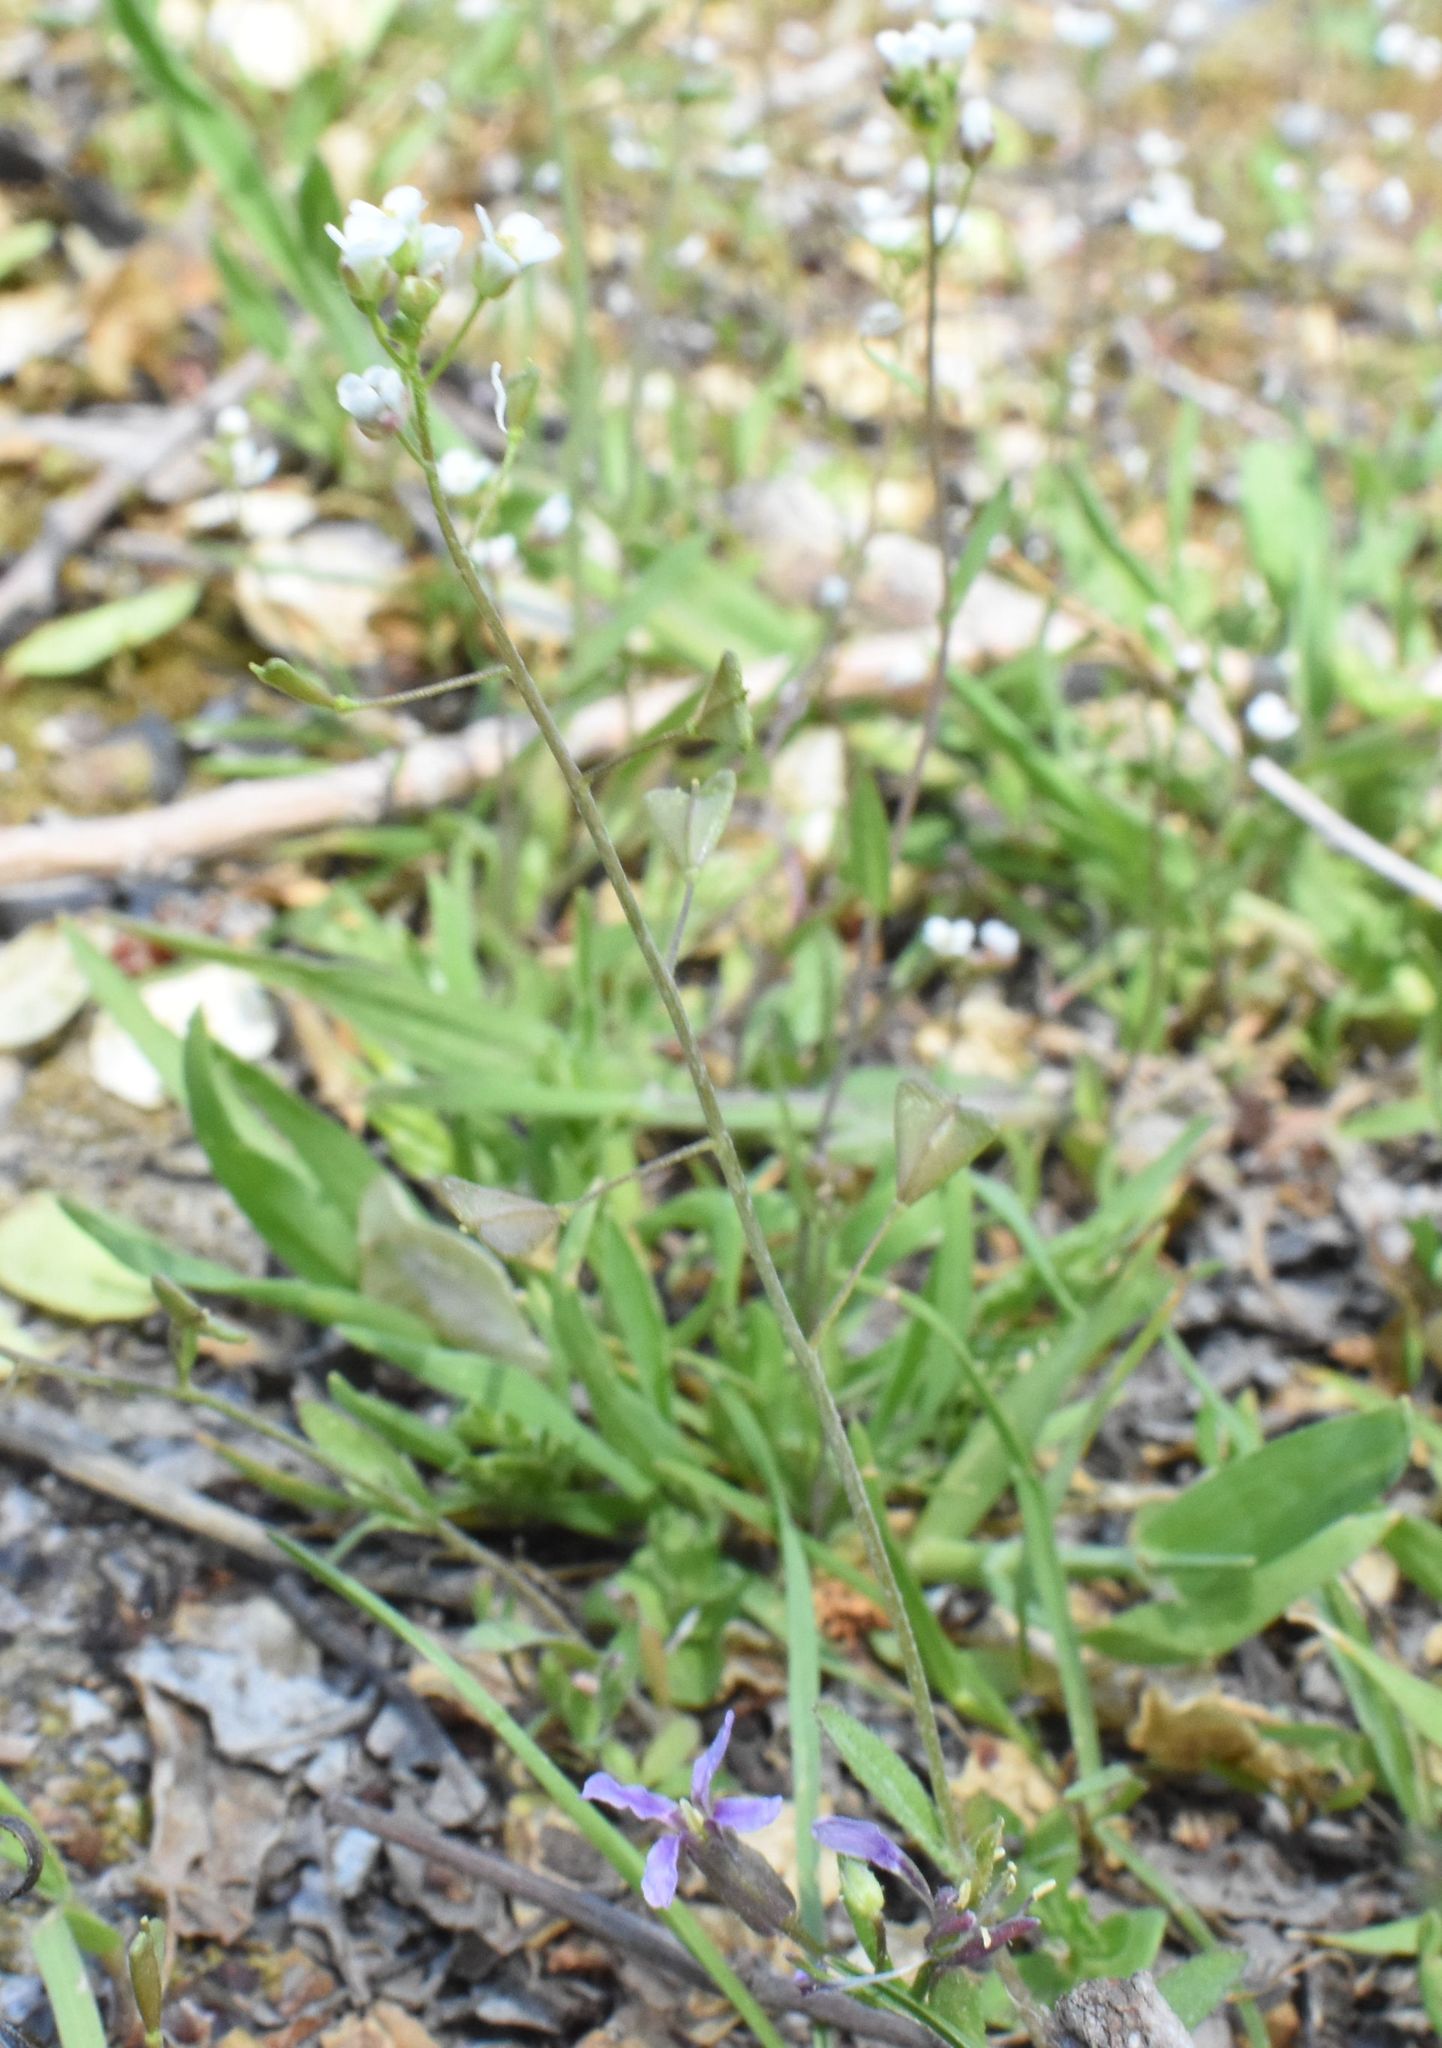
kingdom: Plantae
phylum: Tracheophyta
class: Magnoliopsida
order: Brassicales
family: Brassicaceae
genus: Capsella
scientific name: Capsella bursa-pastoris
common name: Shepherd's purse
